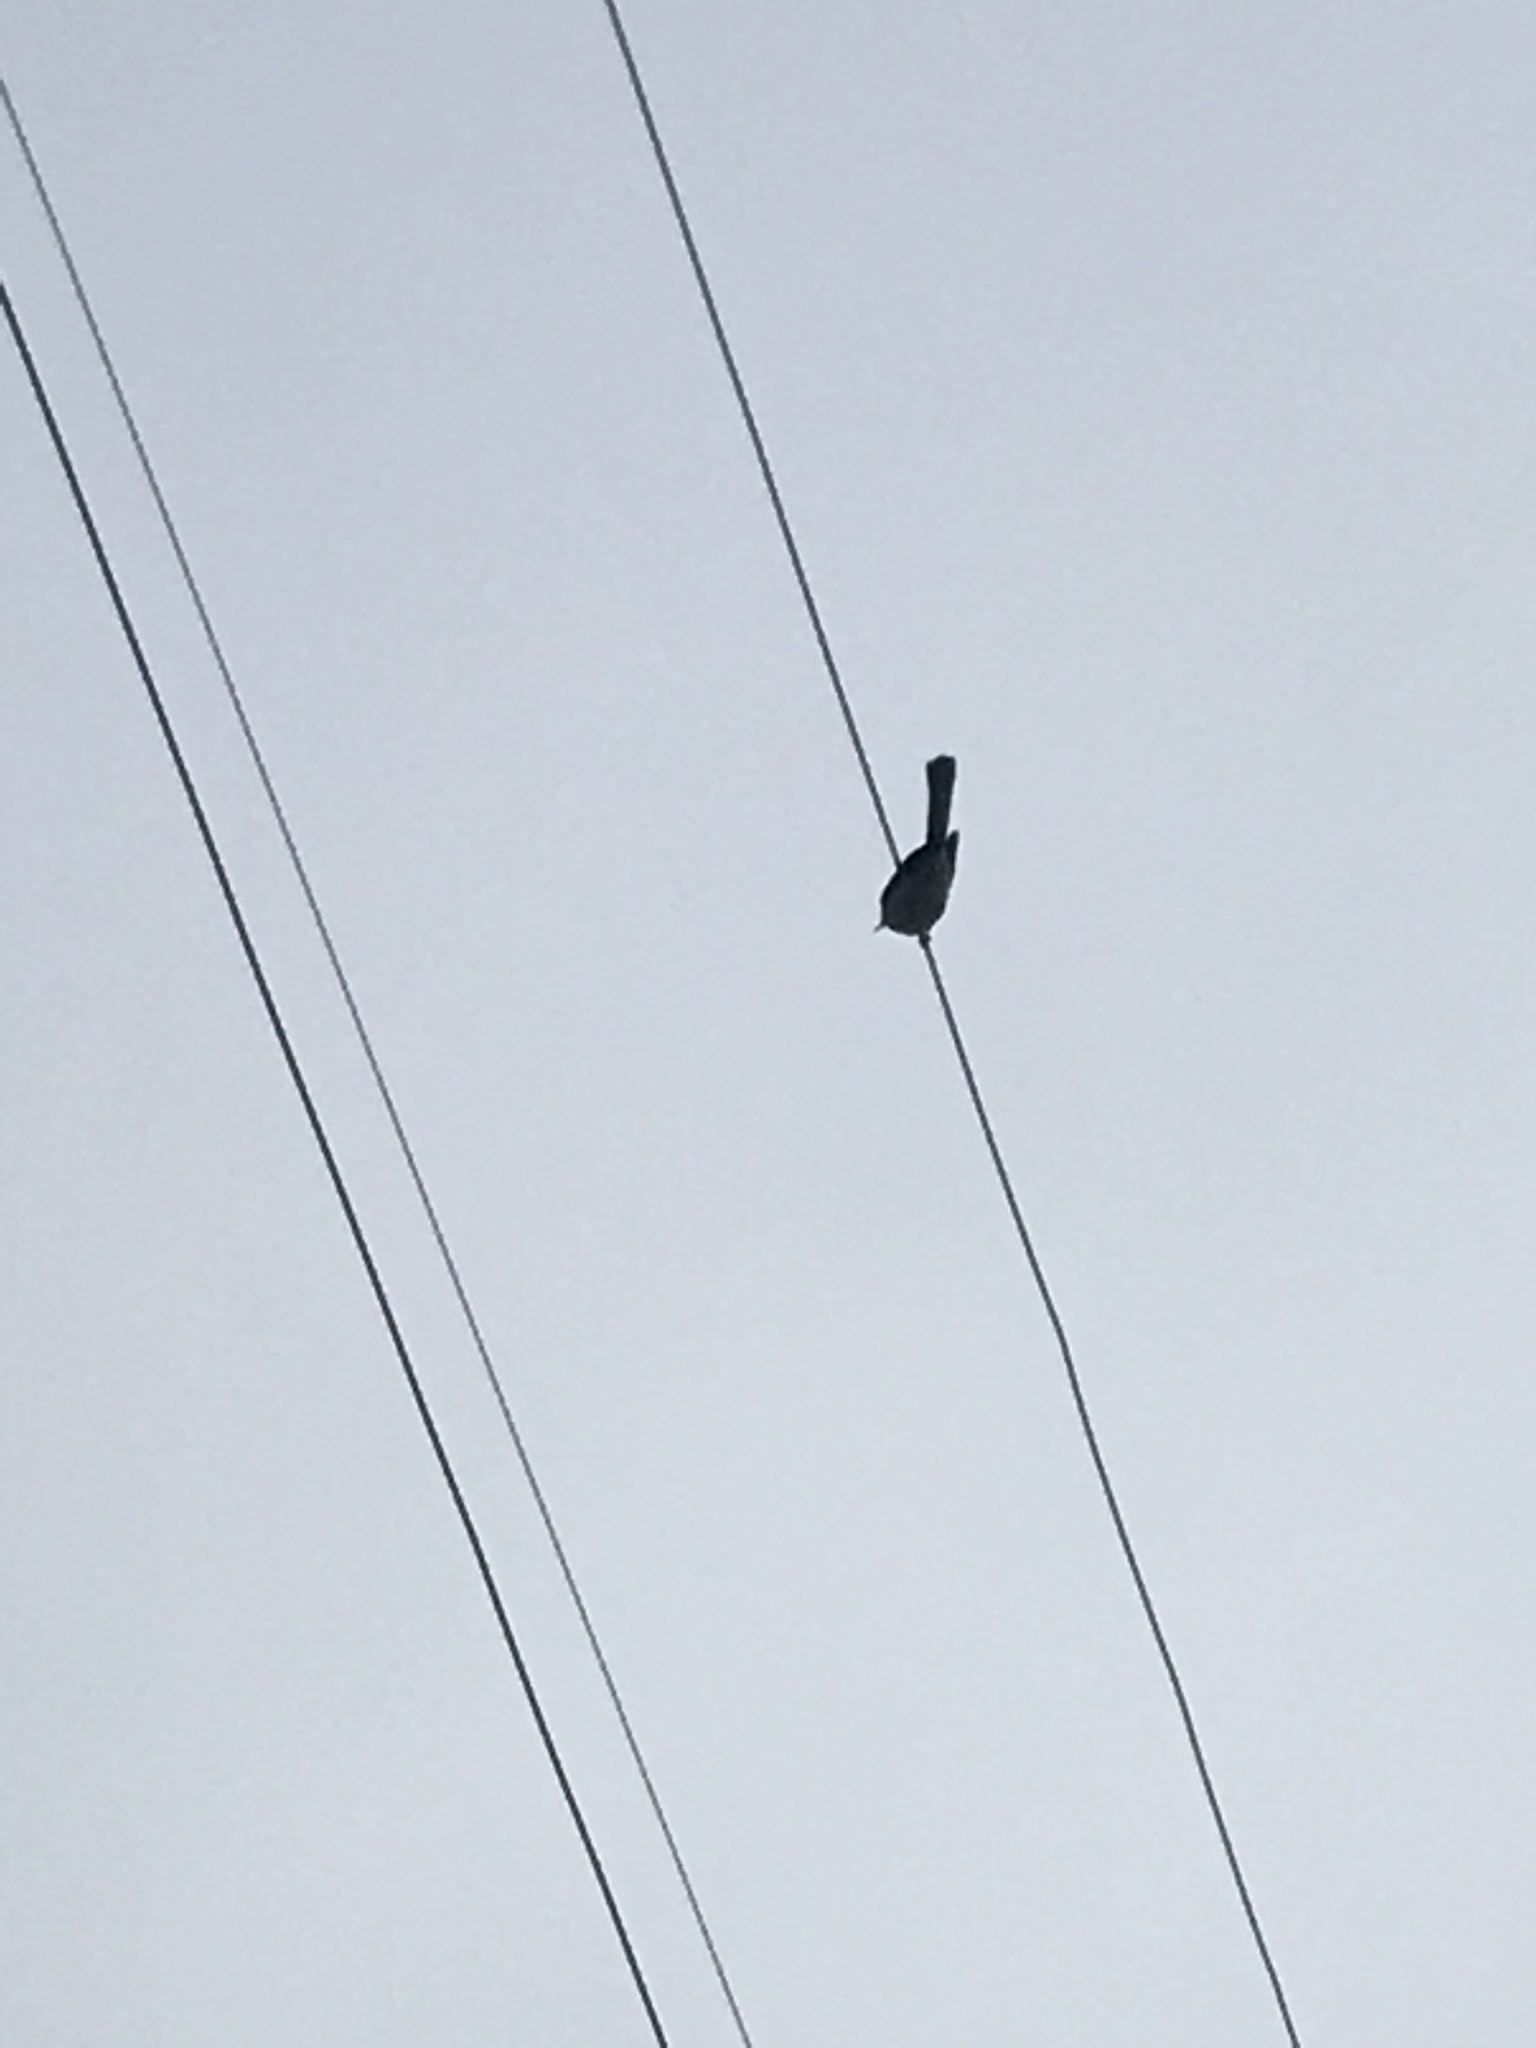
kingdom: Animalia
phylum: Chordata
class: Aves
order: Passeriformes
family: Mimidae
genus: Mimus
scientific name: Mimus polyglottos
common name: Northern mockingbird
